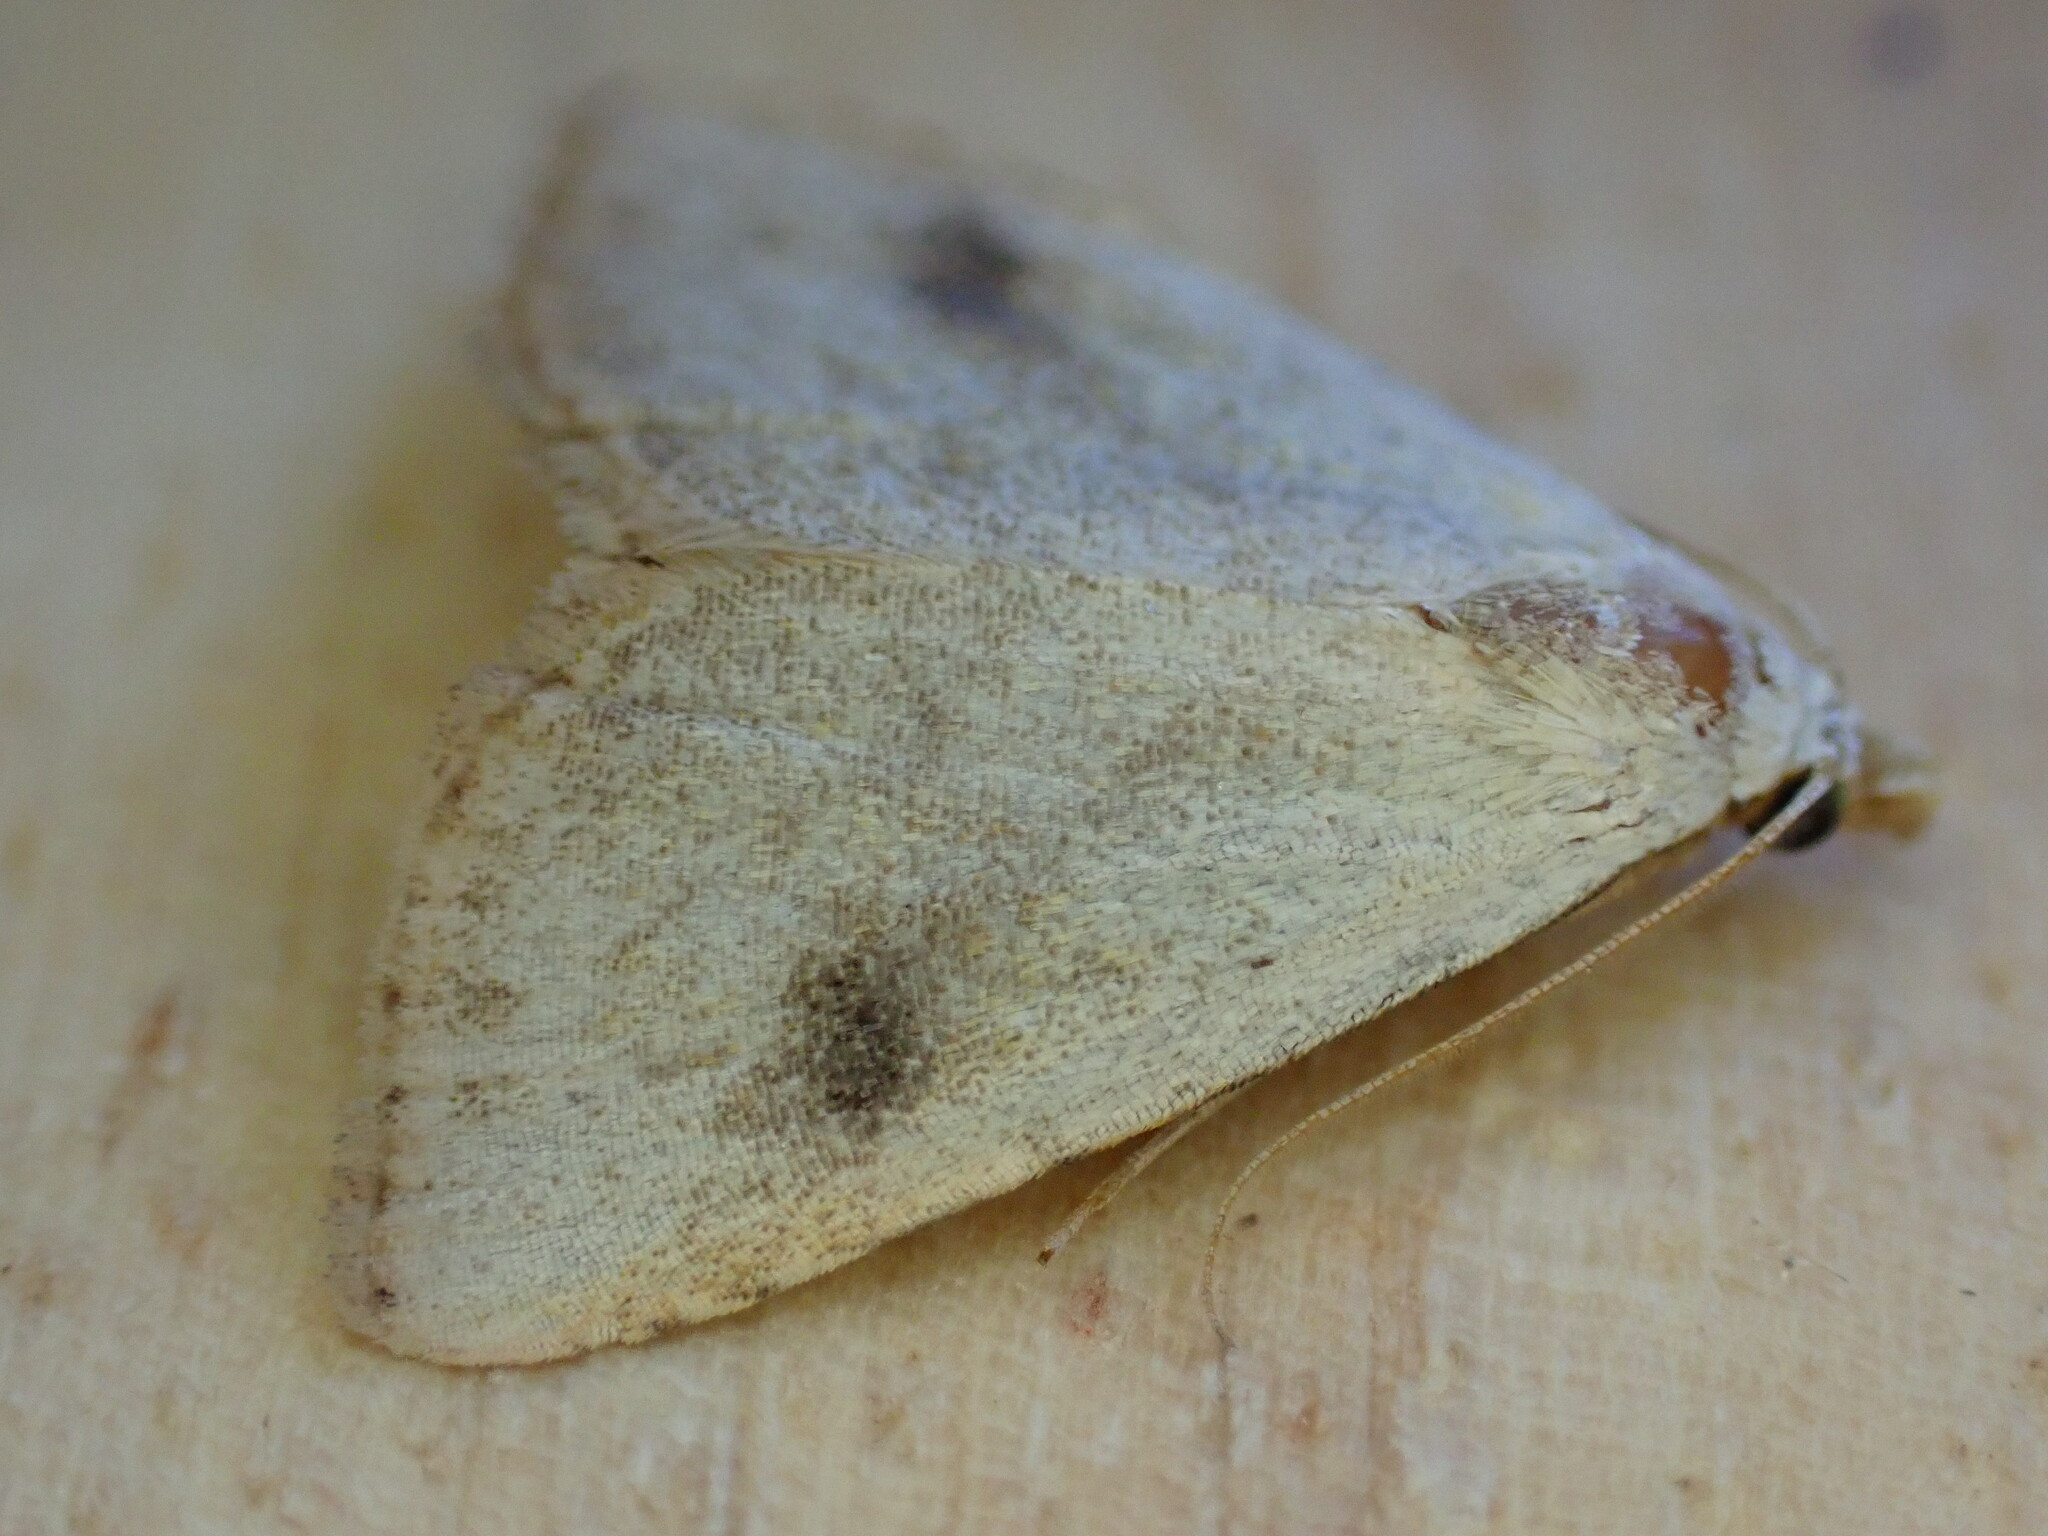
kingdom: Animalia
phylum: Arthropoda
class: Insecta
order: Lepidoptera
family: Erebidae
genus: Rivula
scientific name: Rivula sericealis
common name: Straw dot
